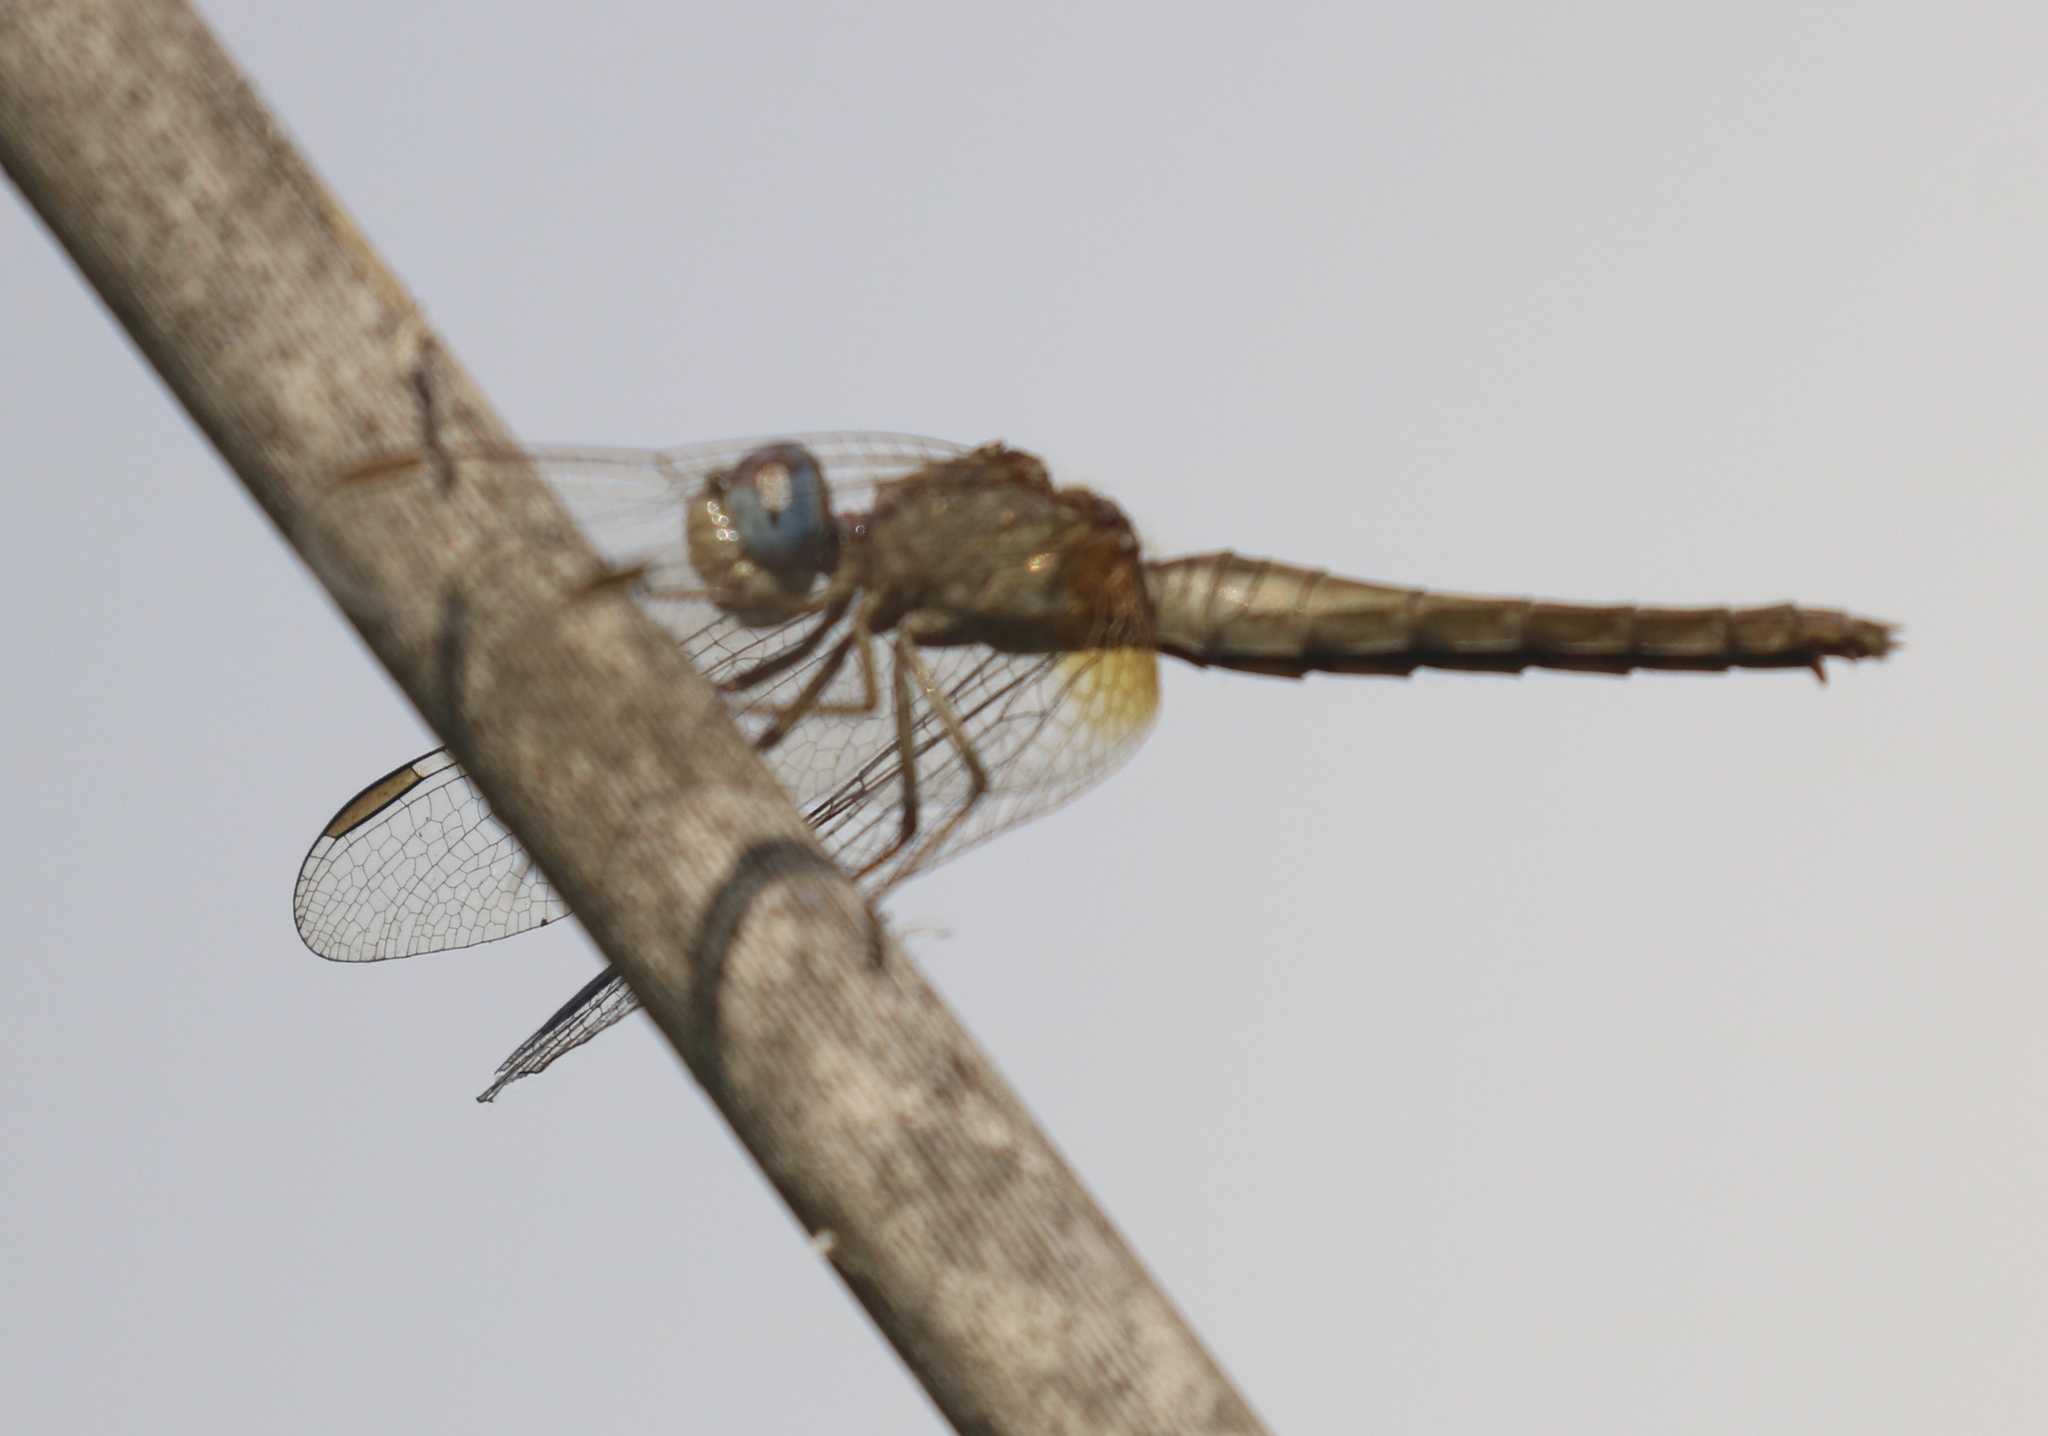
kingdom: Animalia
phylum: Arthropoda
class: Insecta
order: Odonata
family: Libellulidae
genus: Crocothemis
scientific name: Crocothemis erythraea
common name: Scarlet dragonfly
